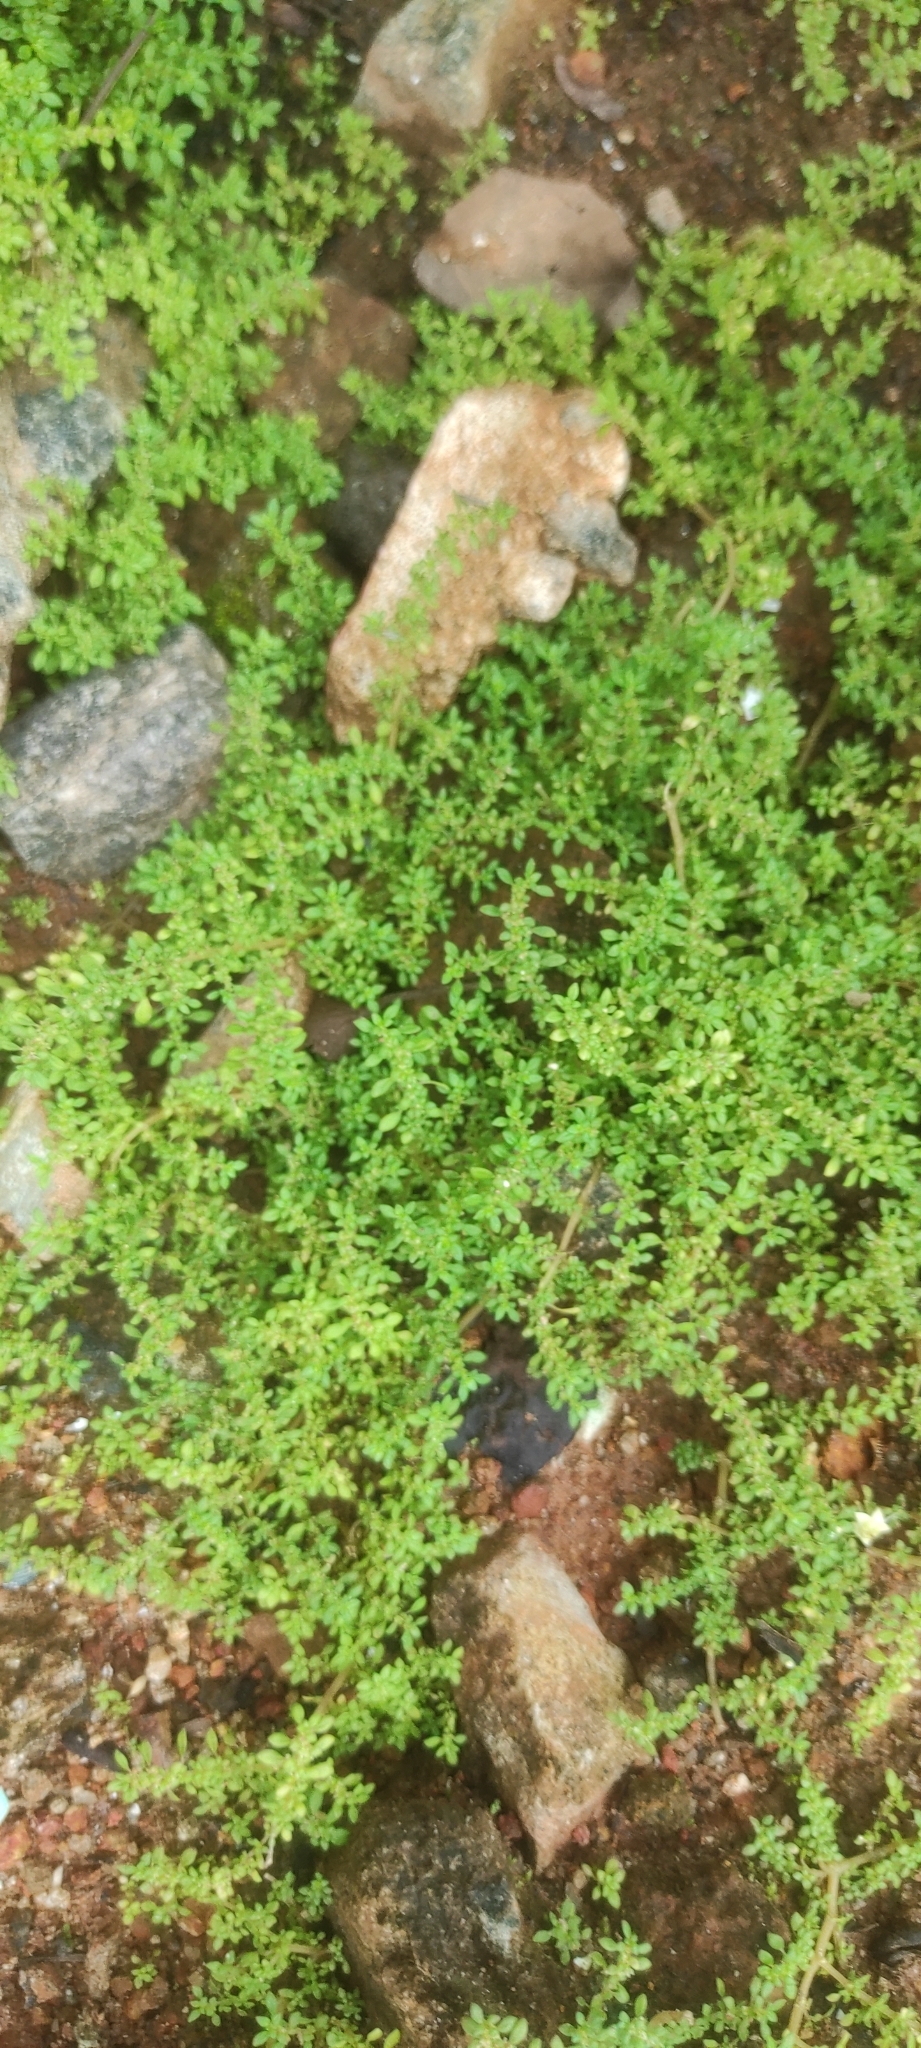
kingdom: Plantae
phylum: Tracheophyta
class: Magnoliopsida
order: Rosales
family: Urticaceae
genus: Pilea
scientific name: Pilea microphylla
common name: Artillery-plant
